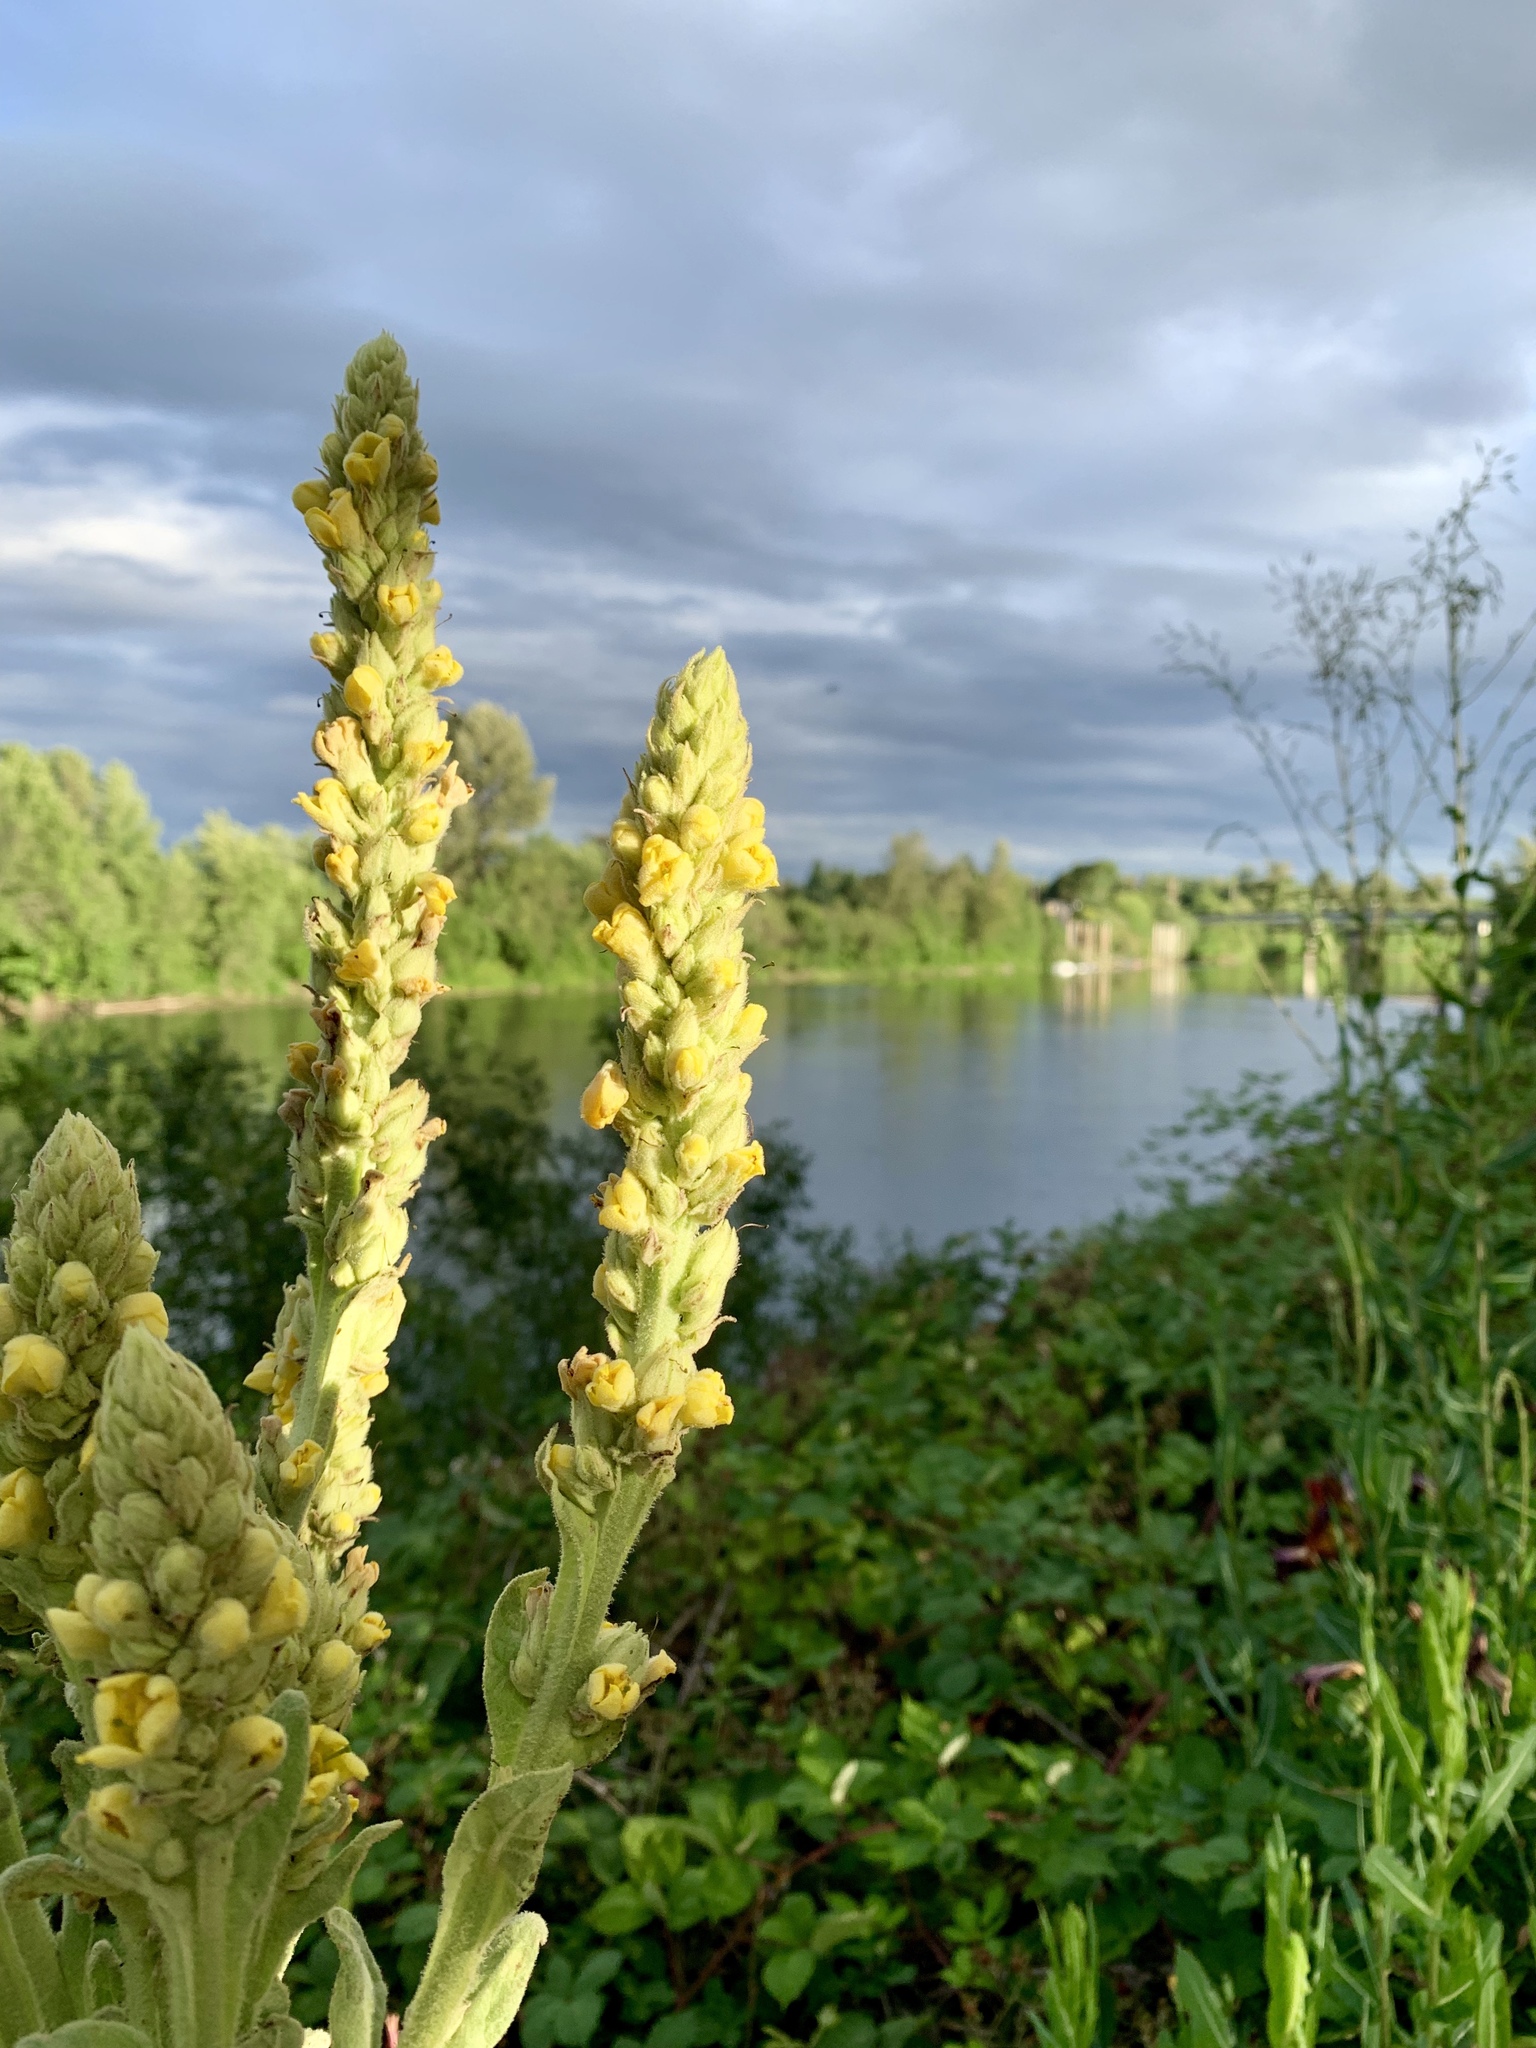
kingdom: Plantae
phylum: Tracheophyta
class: Magnoliopsida
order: Lamiales
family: Scrophulariaceae
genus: Verbascum
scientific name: Verbascum thapsus
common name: Common mullein
